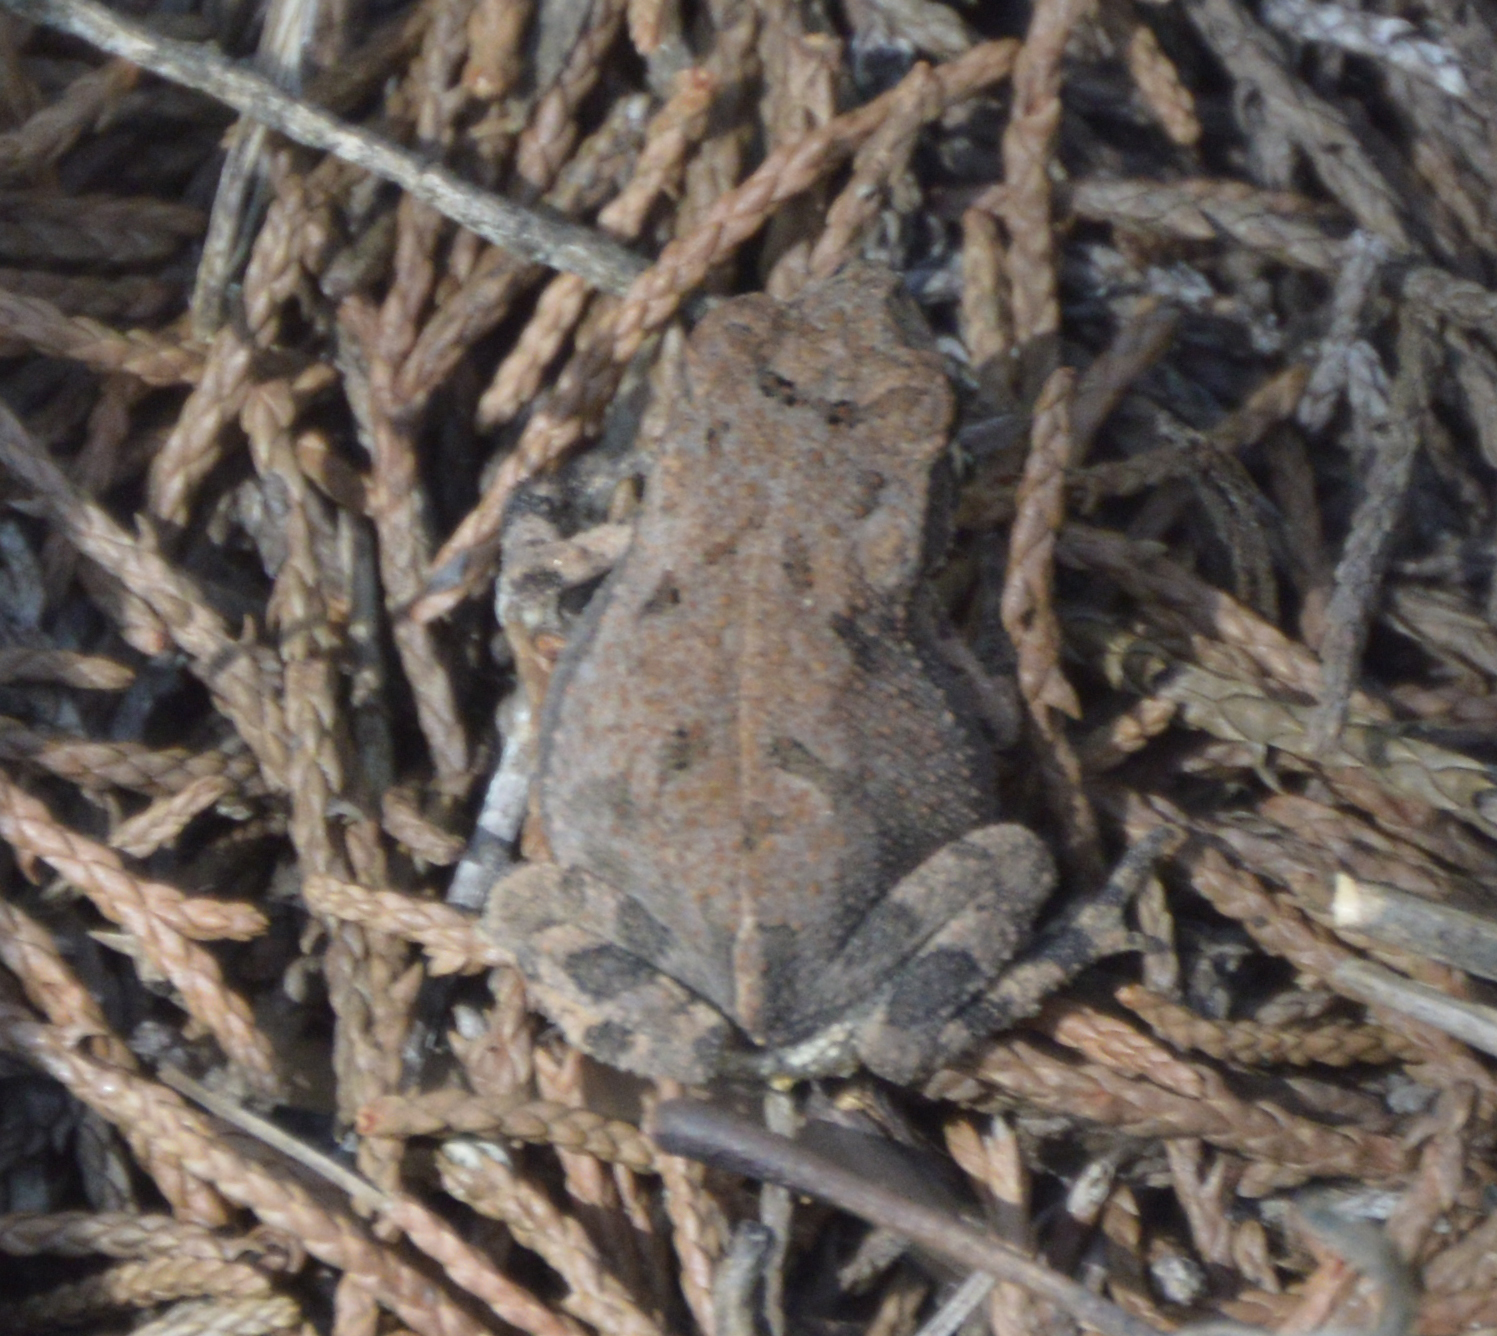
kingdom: Animalia
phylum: Chordata
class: Amphibia
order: Anura
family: Bufonidae
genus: Incilius
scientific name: Incilius nebulifer
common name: Gulf coast toad
